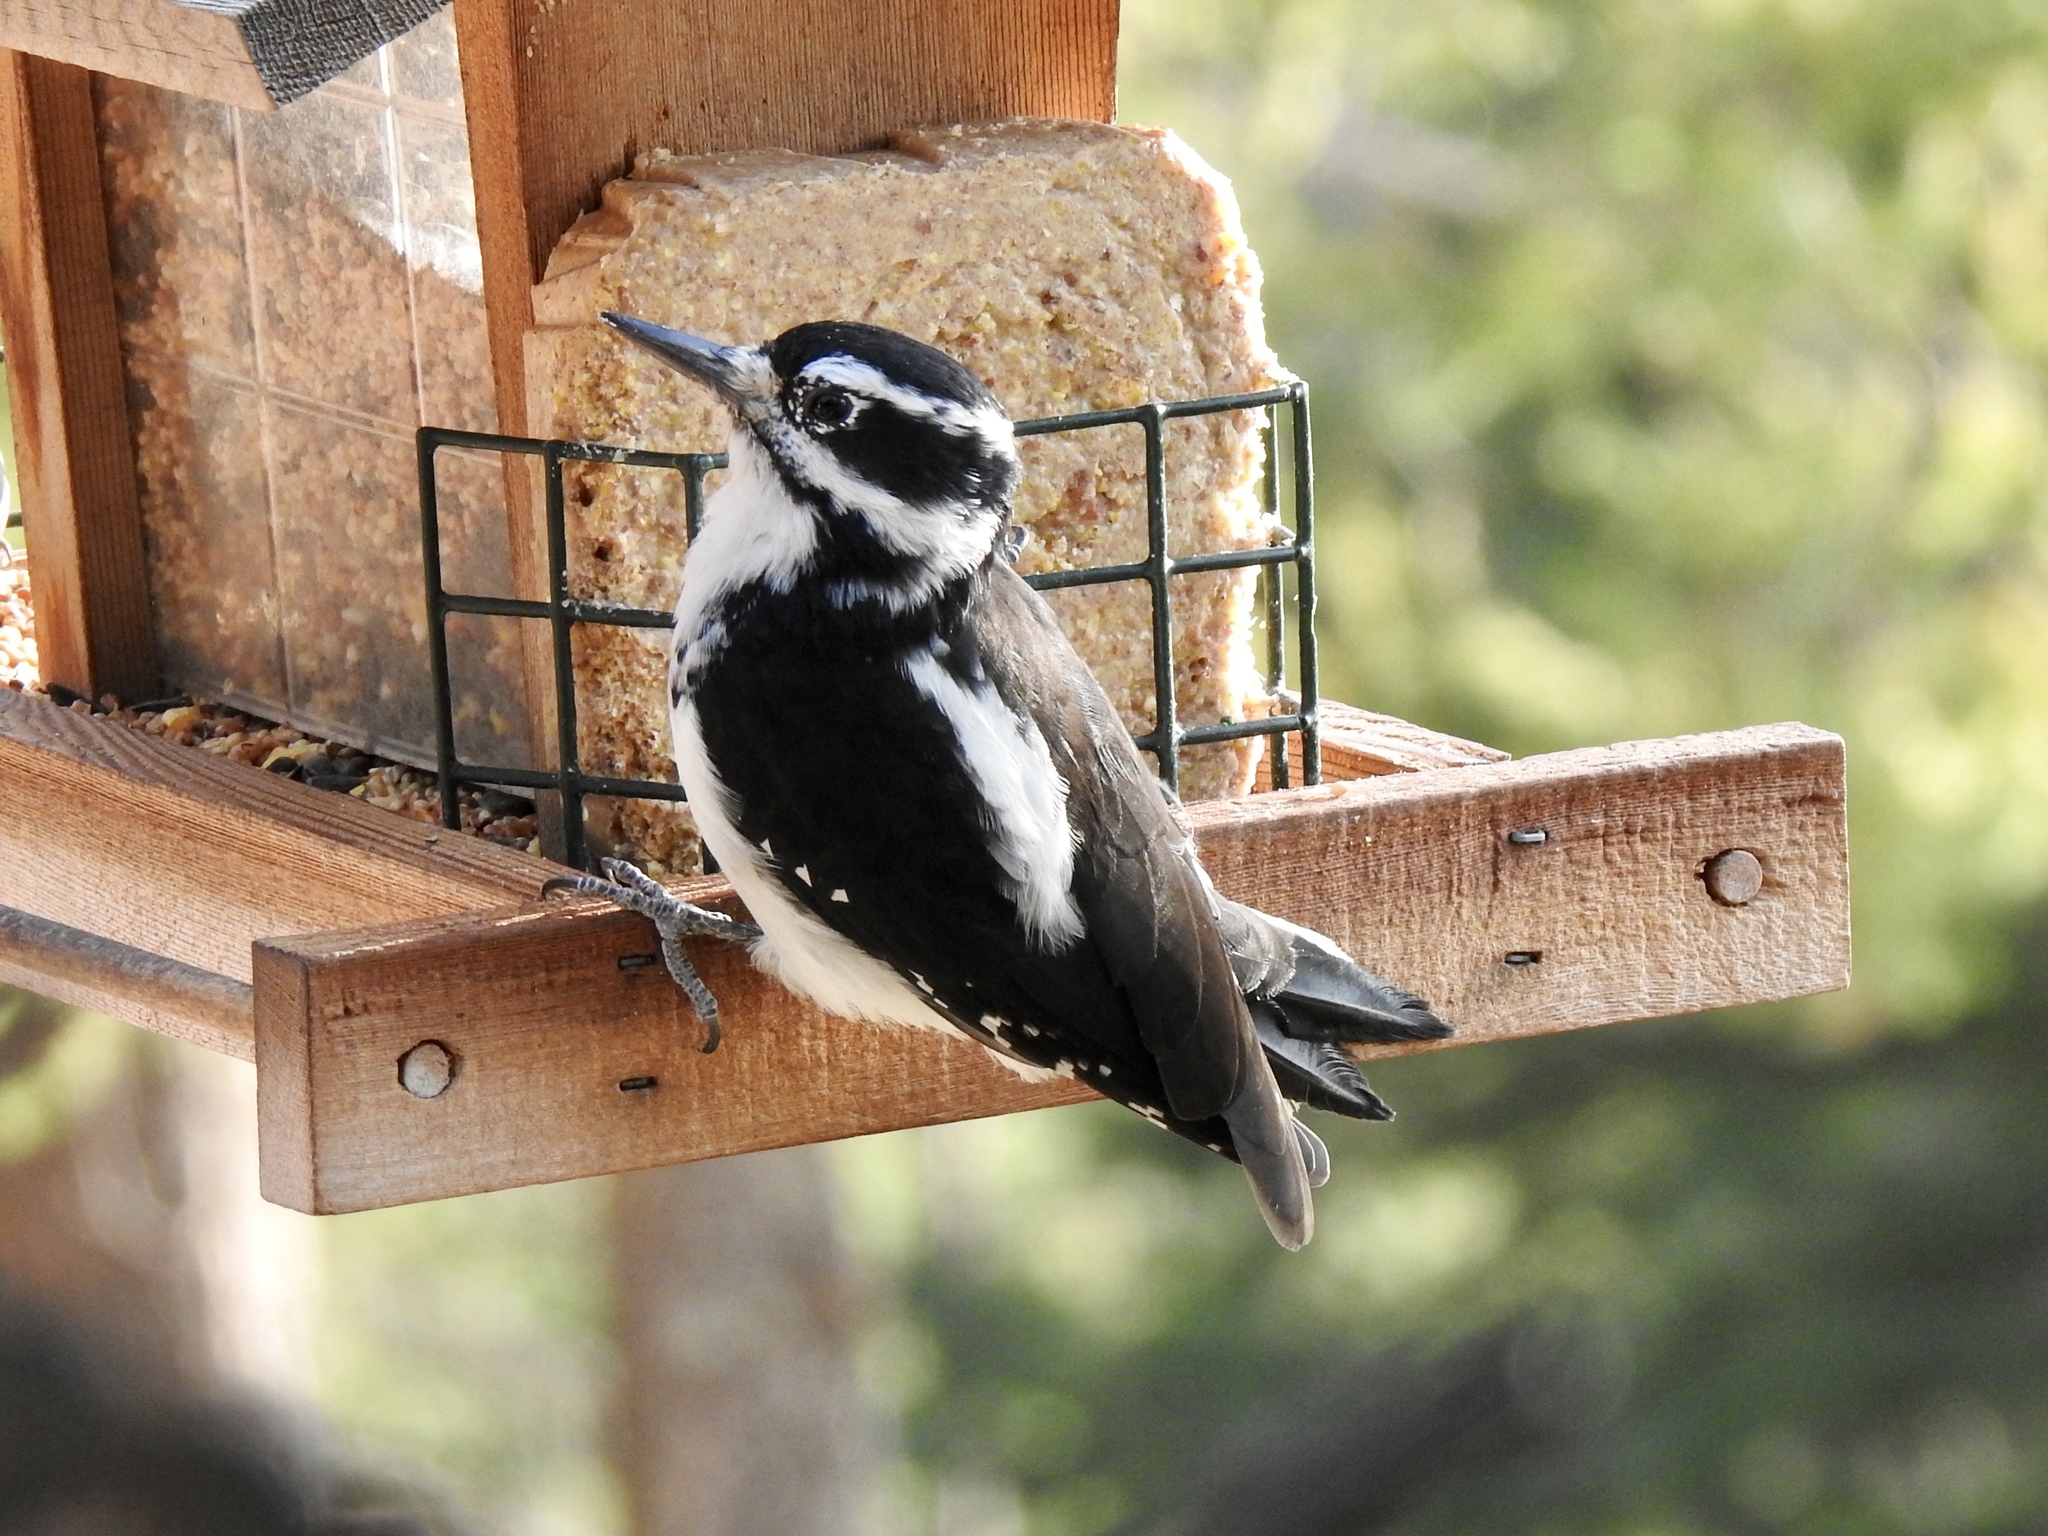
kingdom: Animalia
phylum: Chordata
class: Aves
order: Piciformes
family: Picidae
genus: Leuconotopicus
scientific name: Leuconotopicus villosus
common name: Hairy woodpecker
